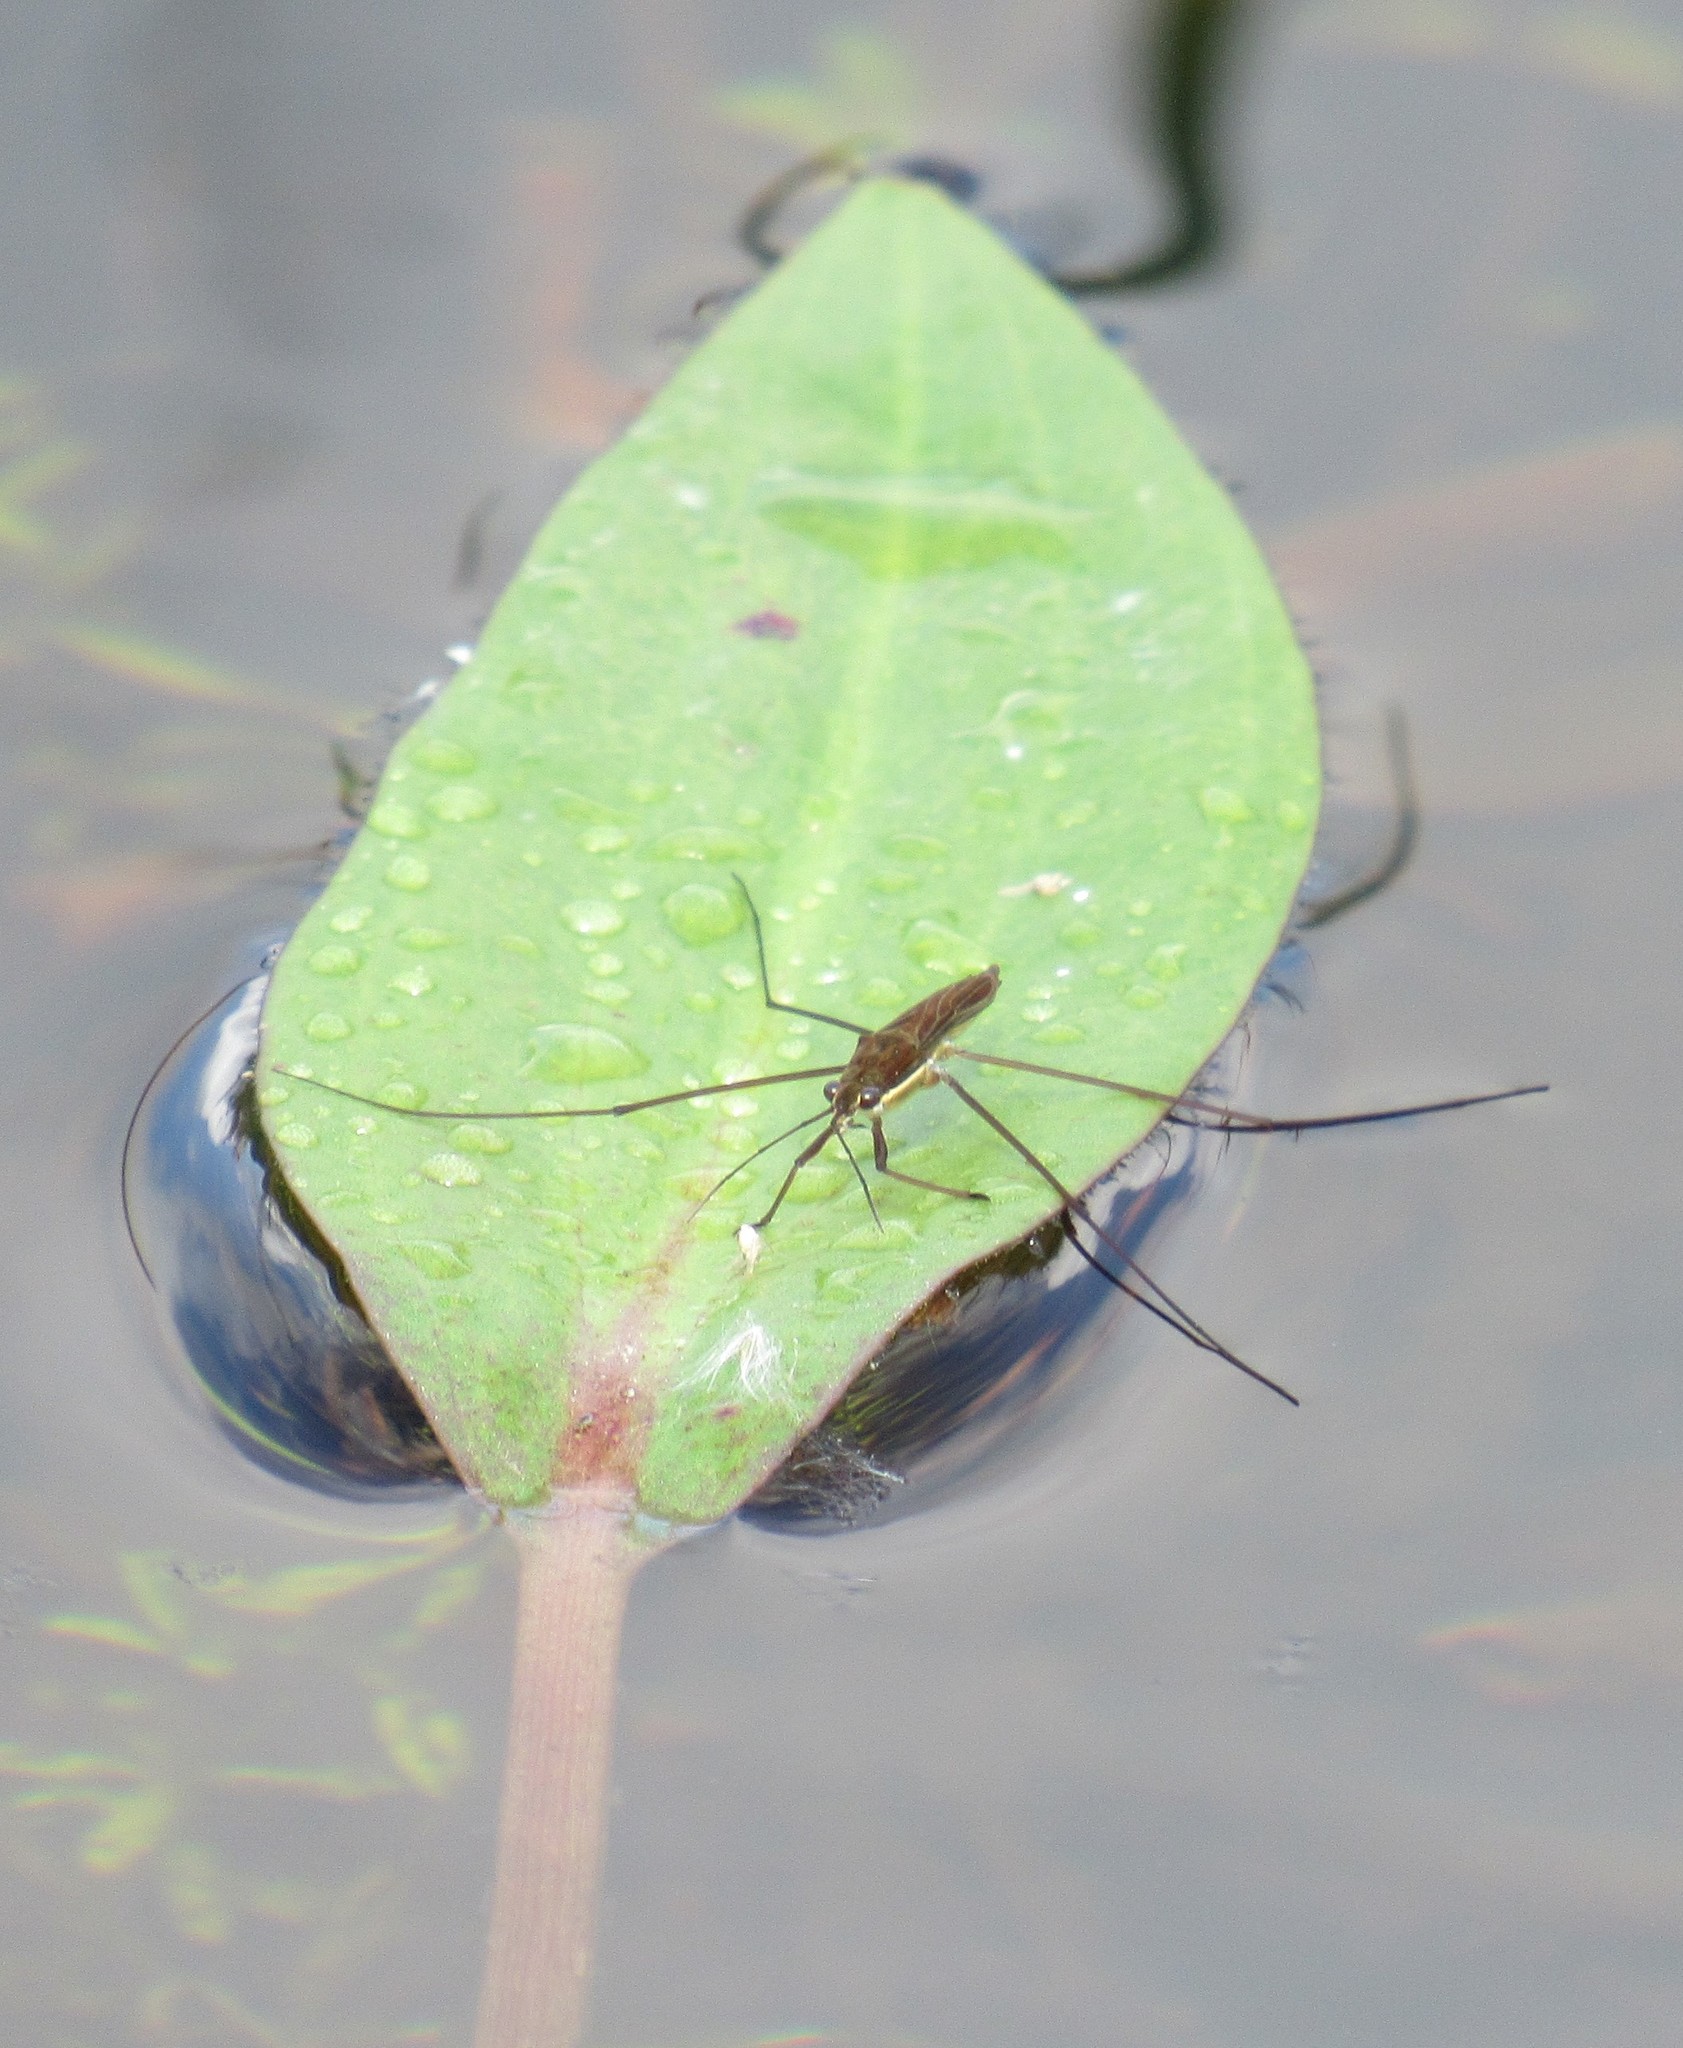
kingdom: Animalia
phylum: Arthropoda
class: Insecta
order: Hemiptera
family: Gerridae
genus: Limnoporus
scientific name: Limnoporus dissortis
